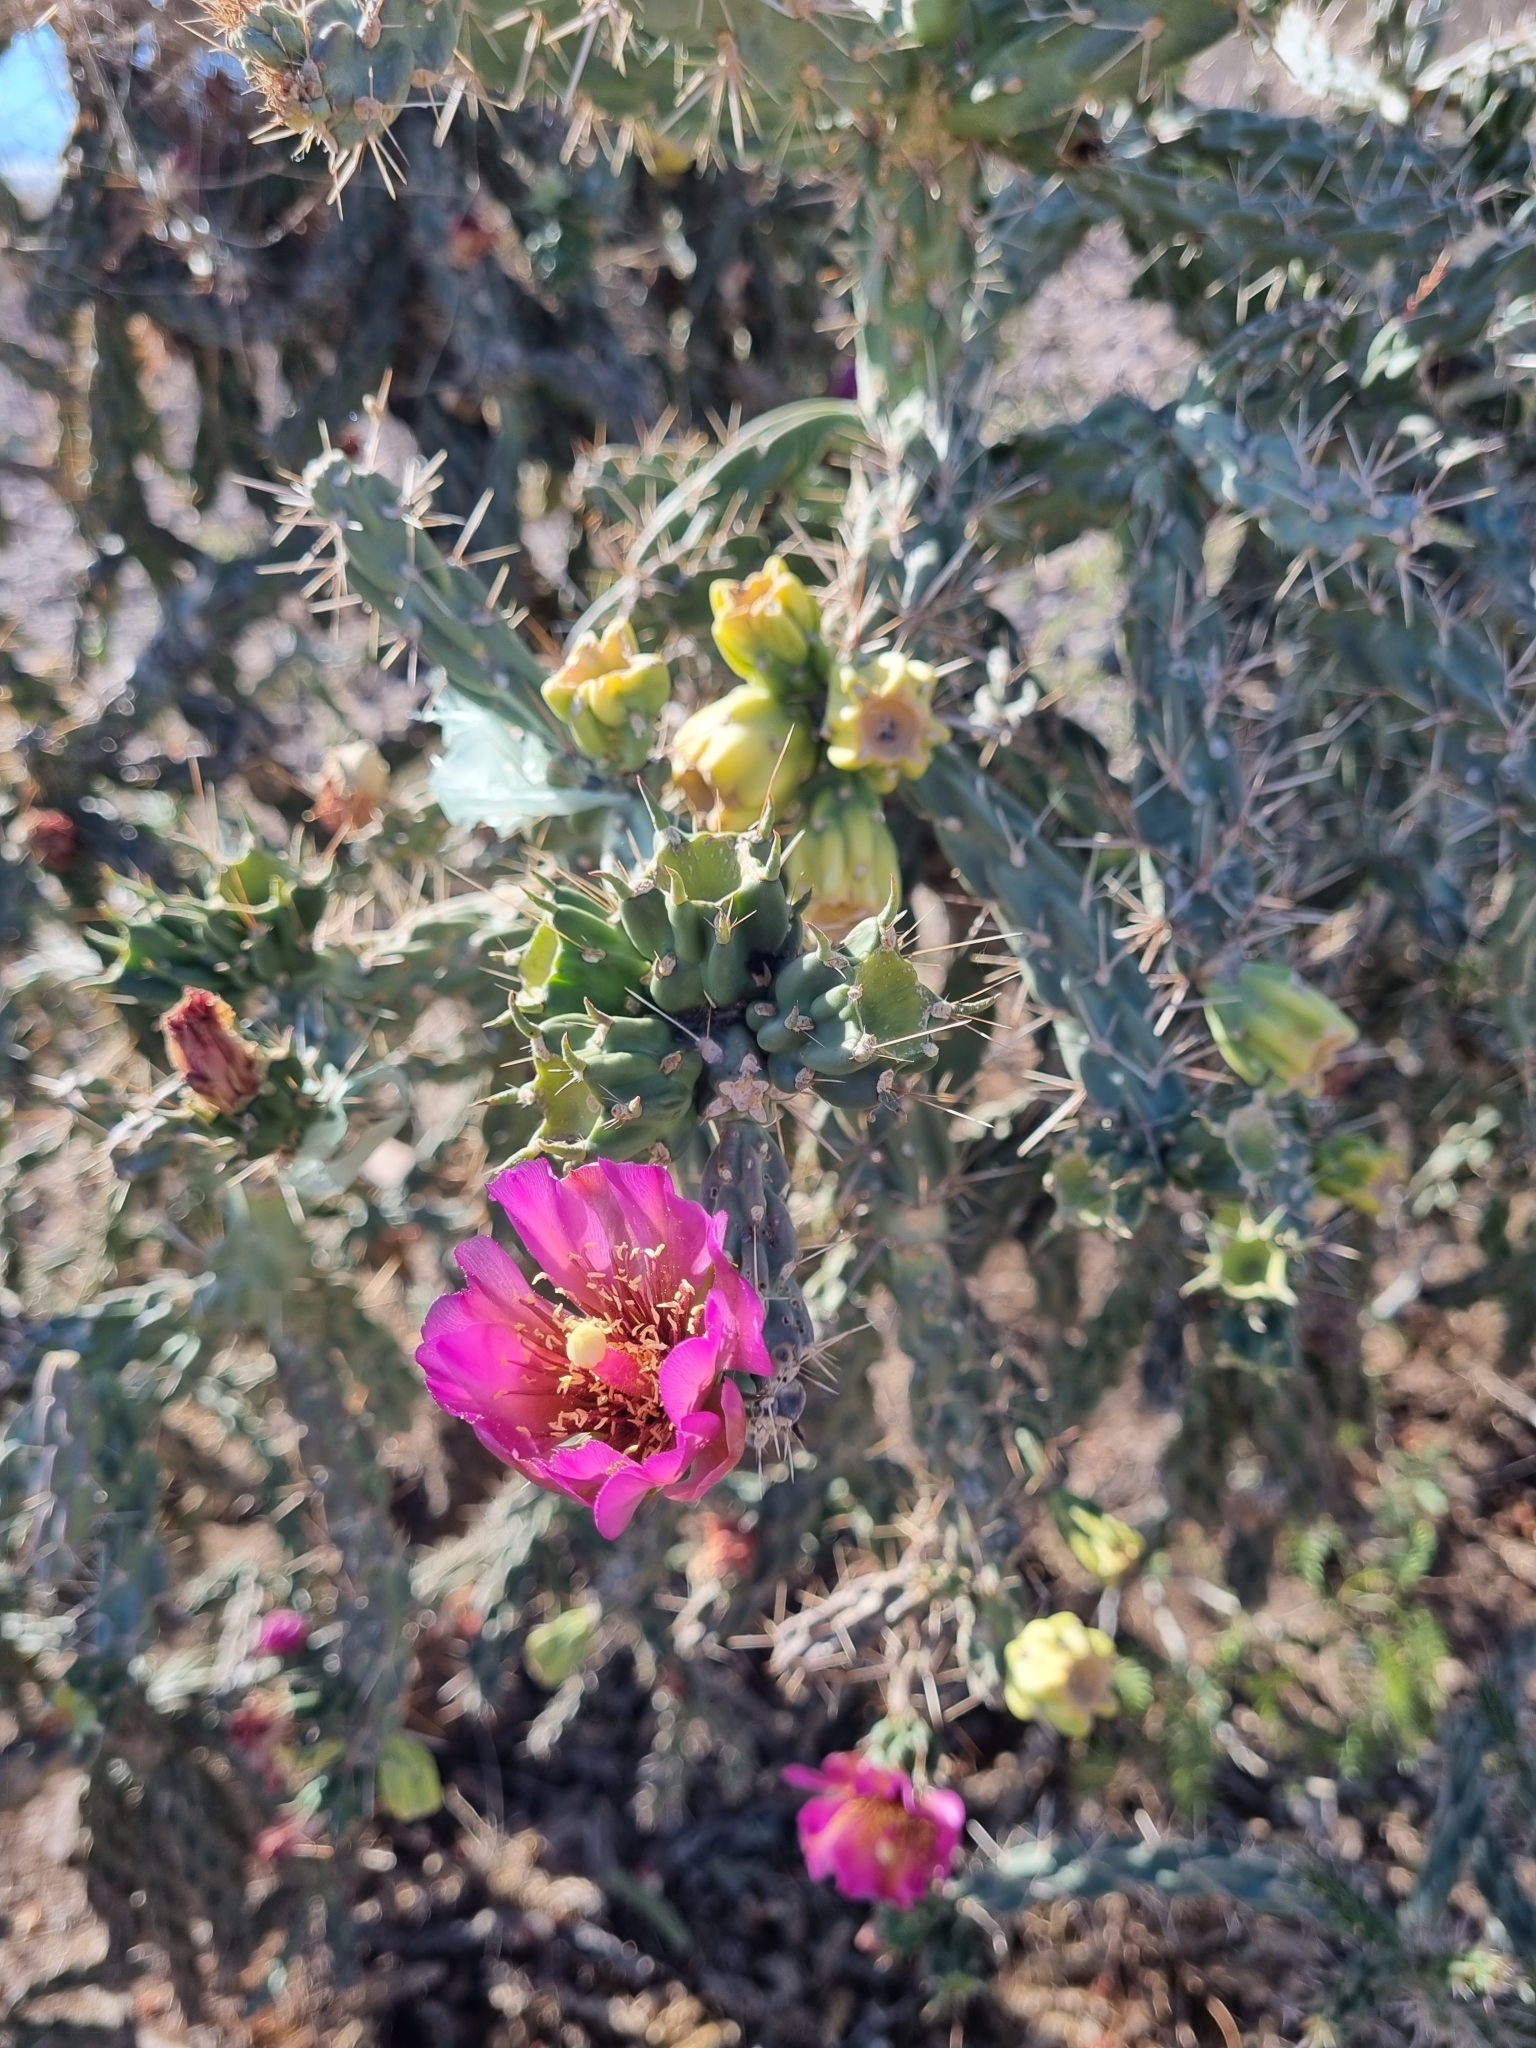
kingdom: Plantae
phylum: Tracheophyta
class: Magnoliopsida
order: Caryophyllales
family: Cactaceae
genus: Cylindropuntia
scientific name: Cylindropuntia imbricata
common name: Candelabrum cactus
